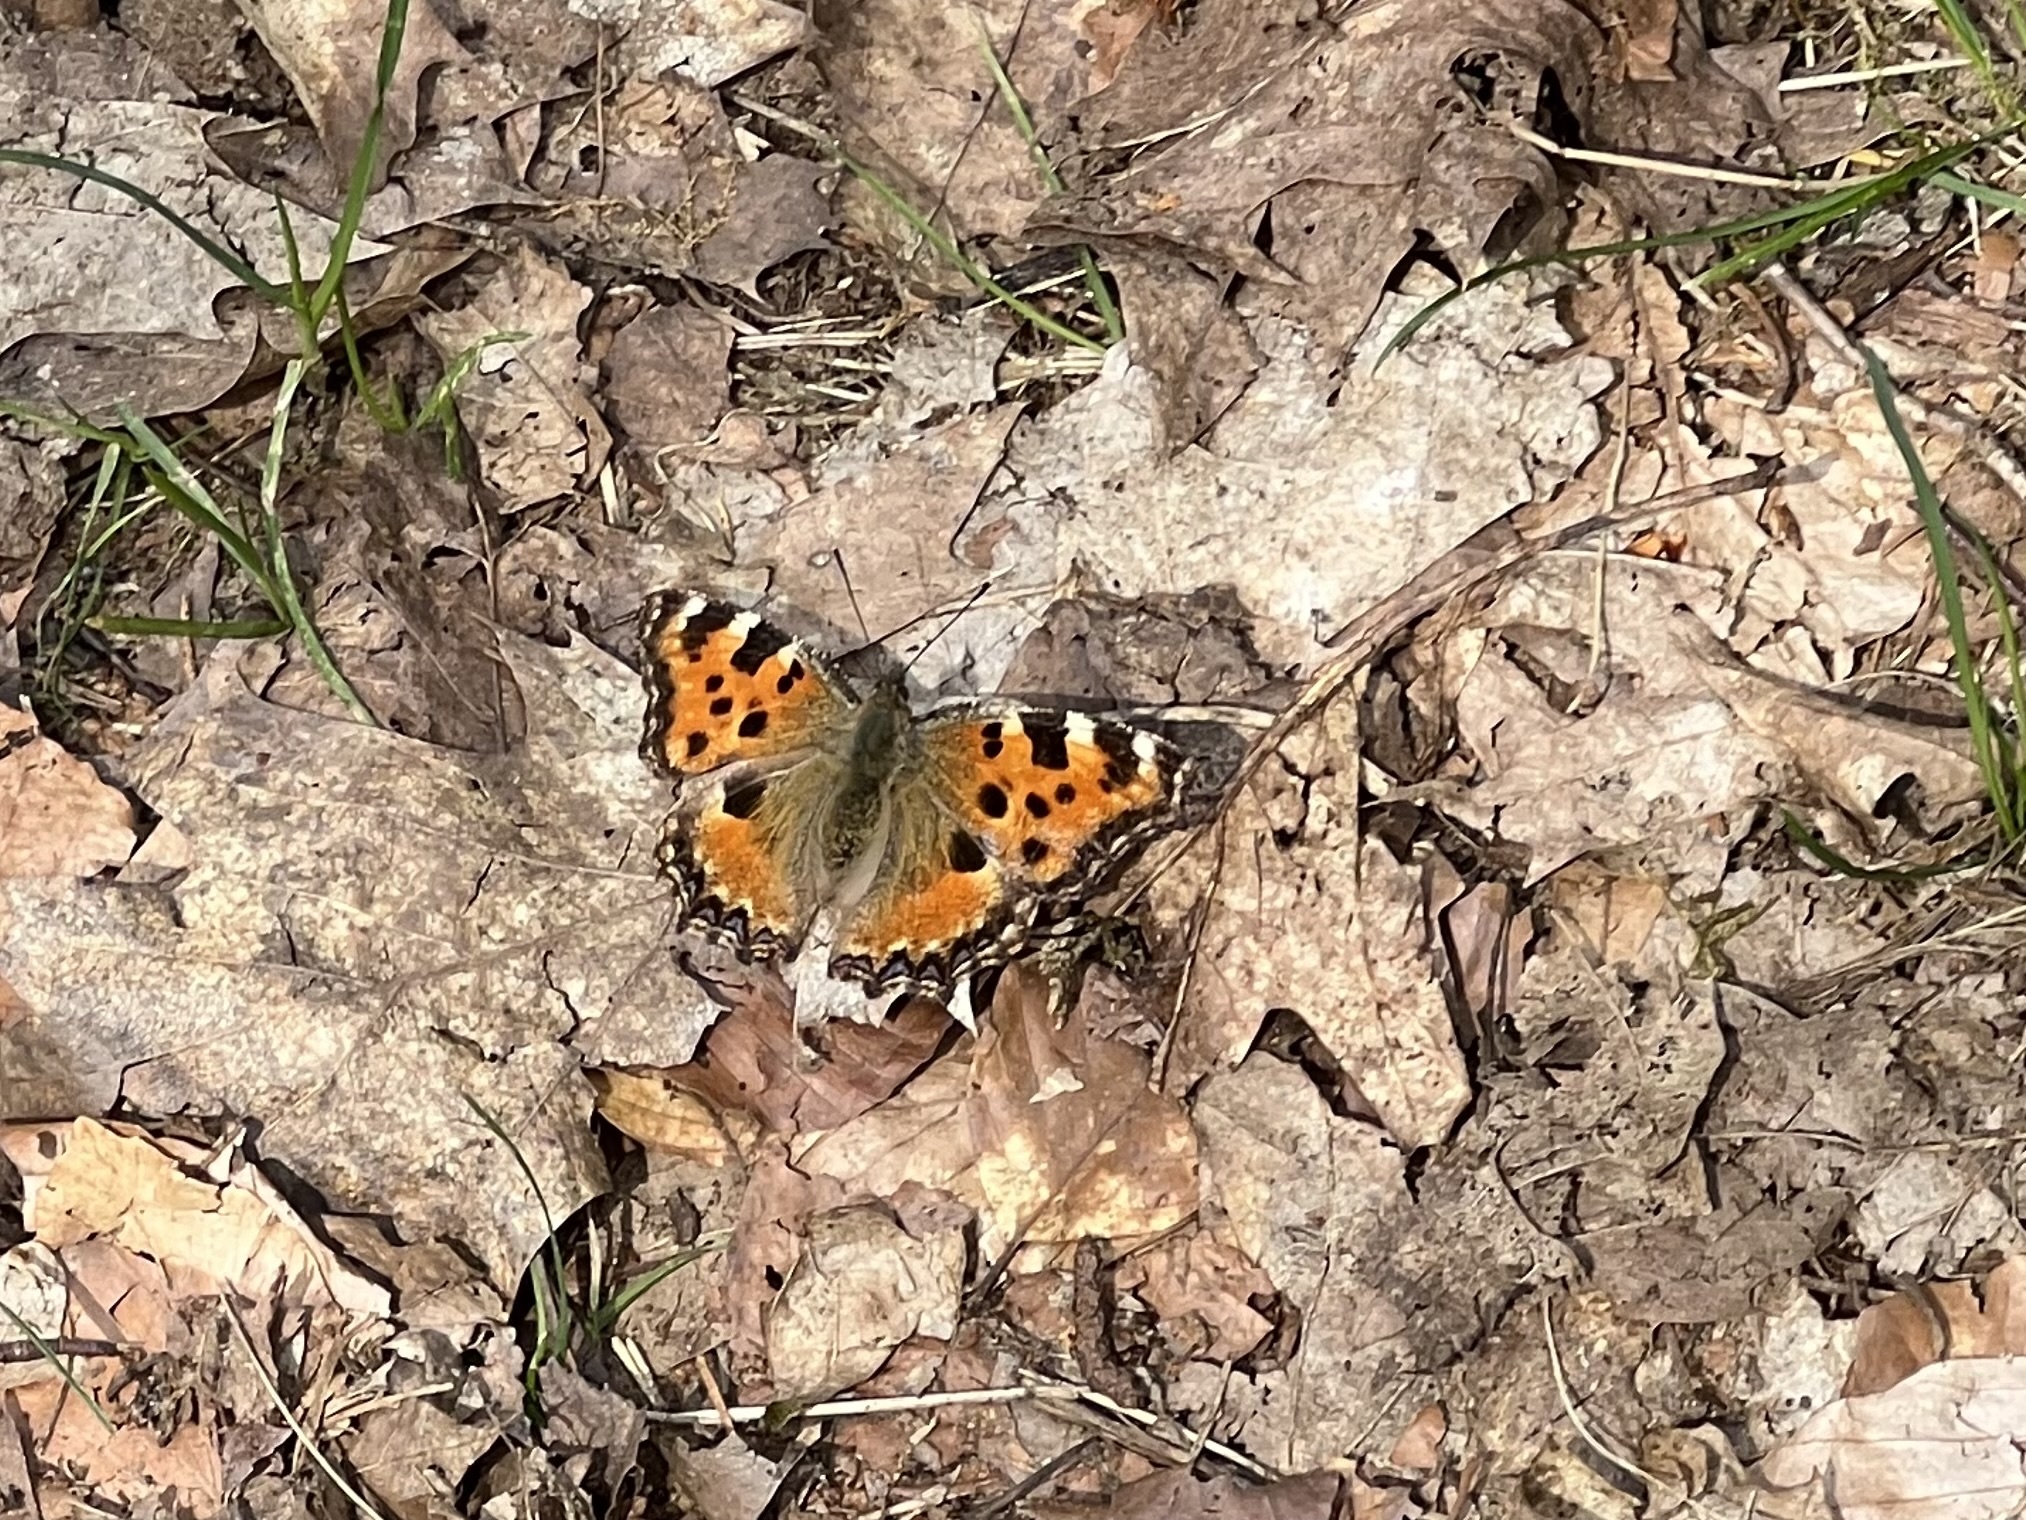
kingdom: Animalia
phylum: Arthropoda
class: Insecta
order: Lepidoptera
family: Nymphalidae
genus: Nymphalis
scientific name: Nymphalis polychloros
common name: Large tortoiseshell
